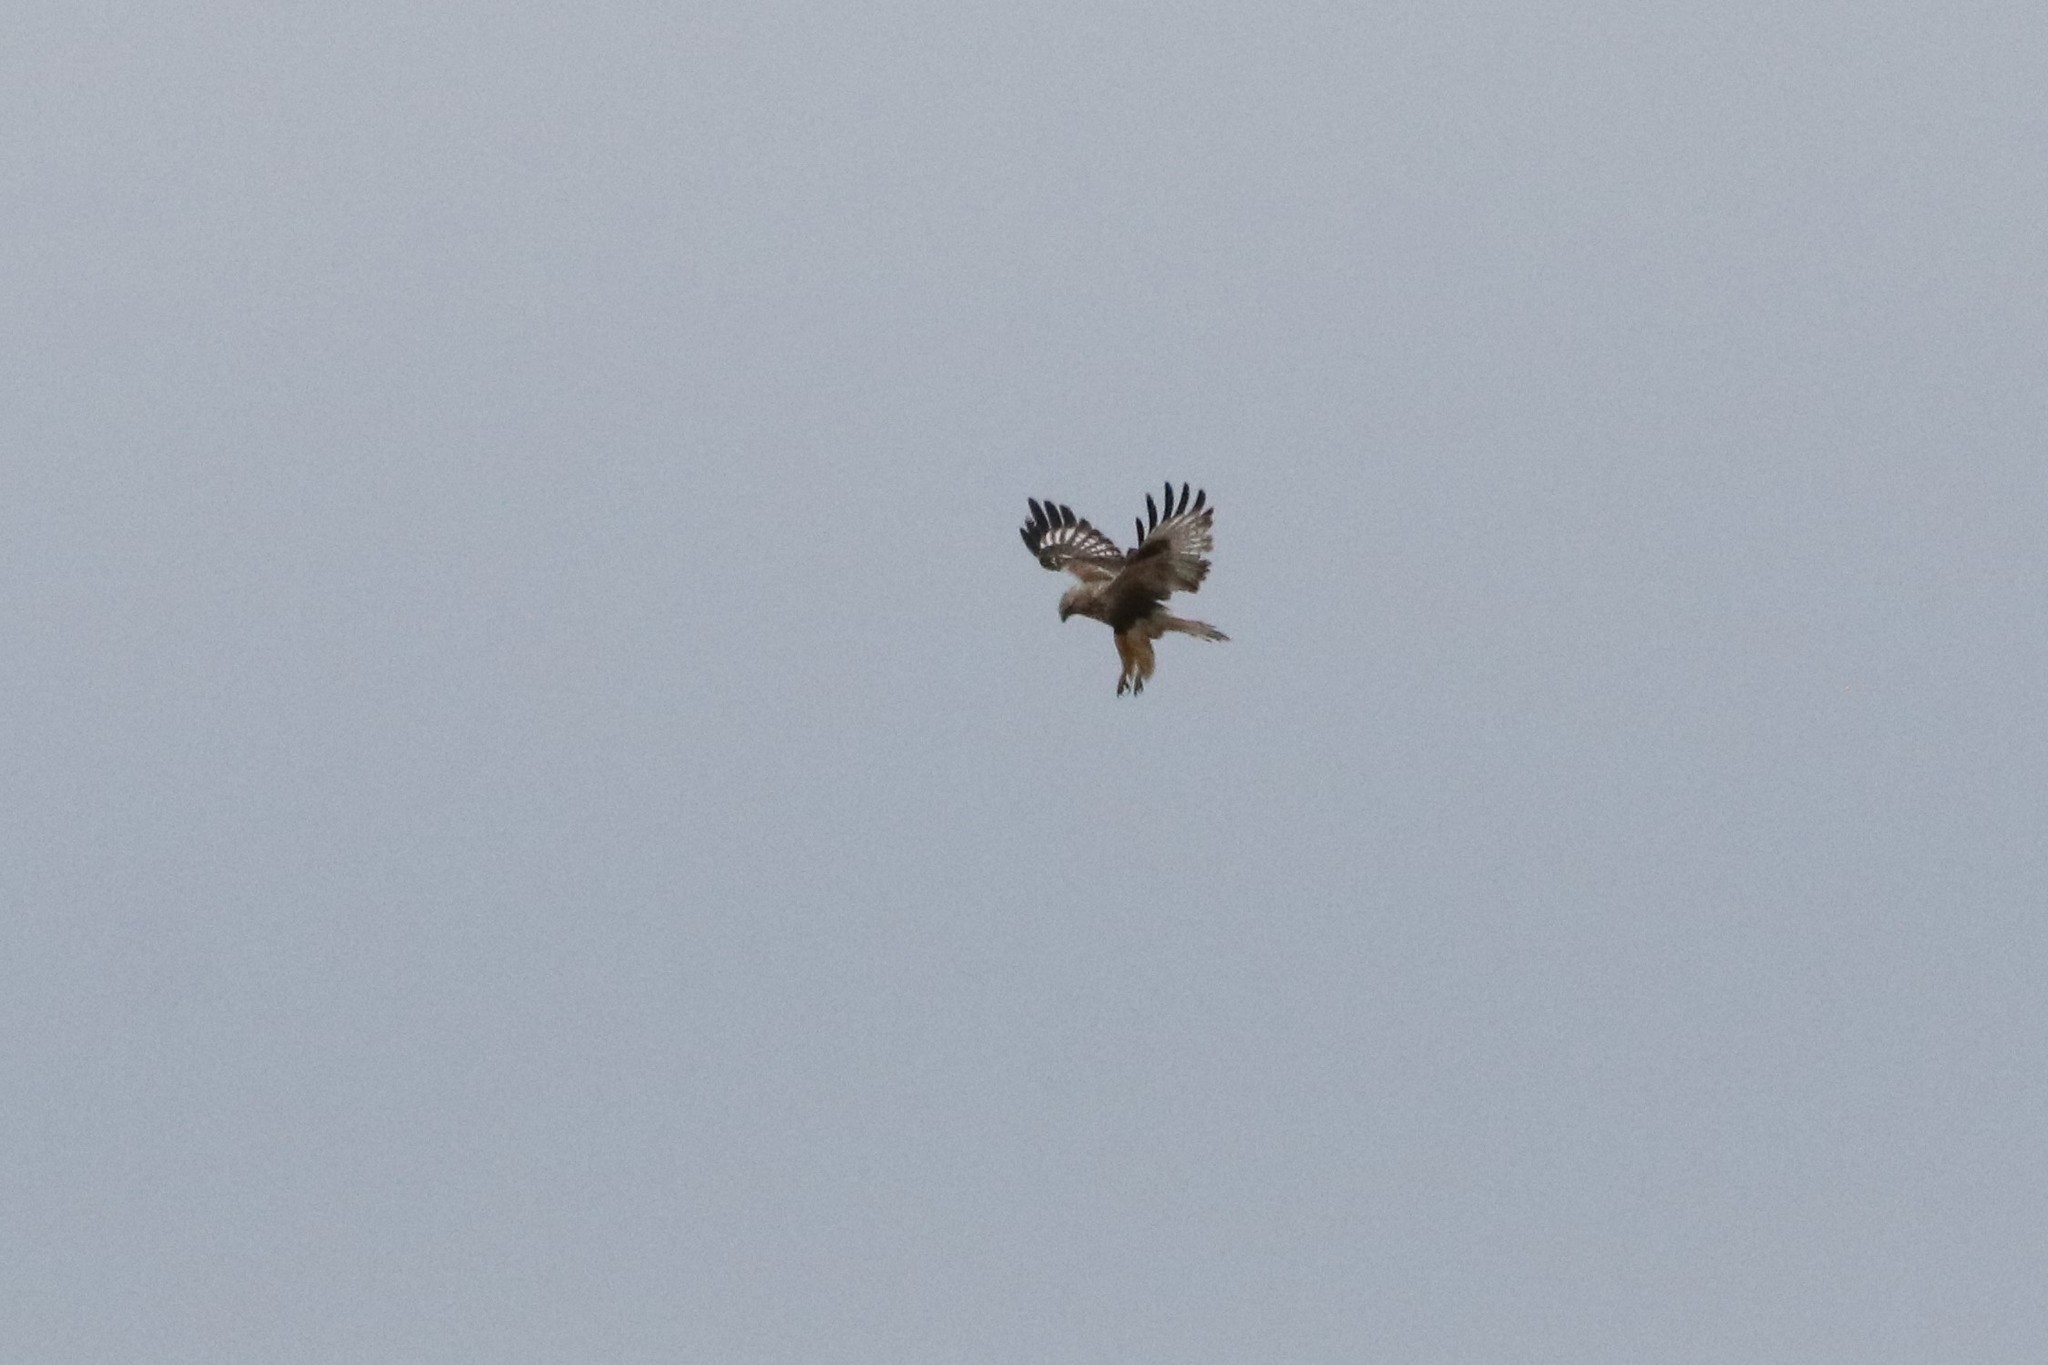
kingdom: Animalia
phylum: Chordata
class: Aves
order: Accipitriformes
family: Accipitridae
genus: Buteo
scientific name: Buteo lagopus
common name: Rough-legged buzzard
